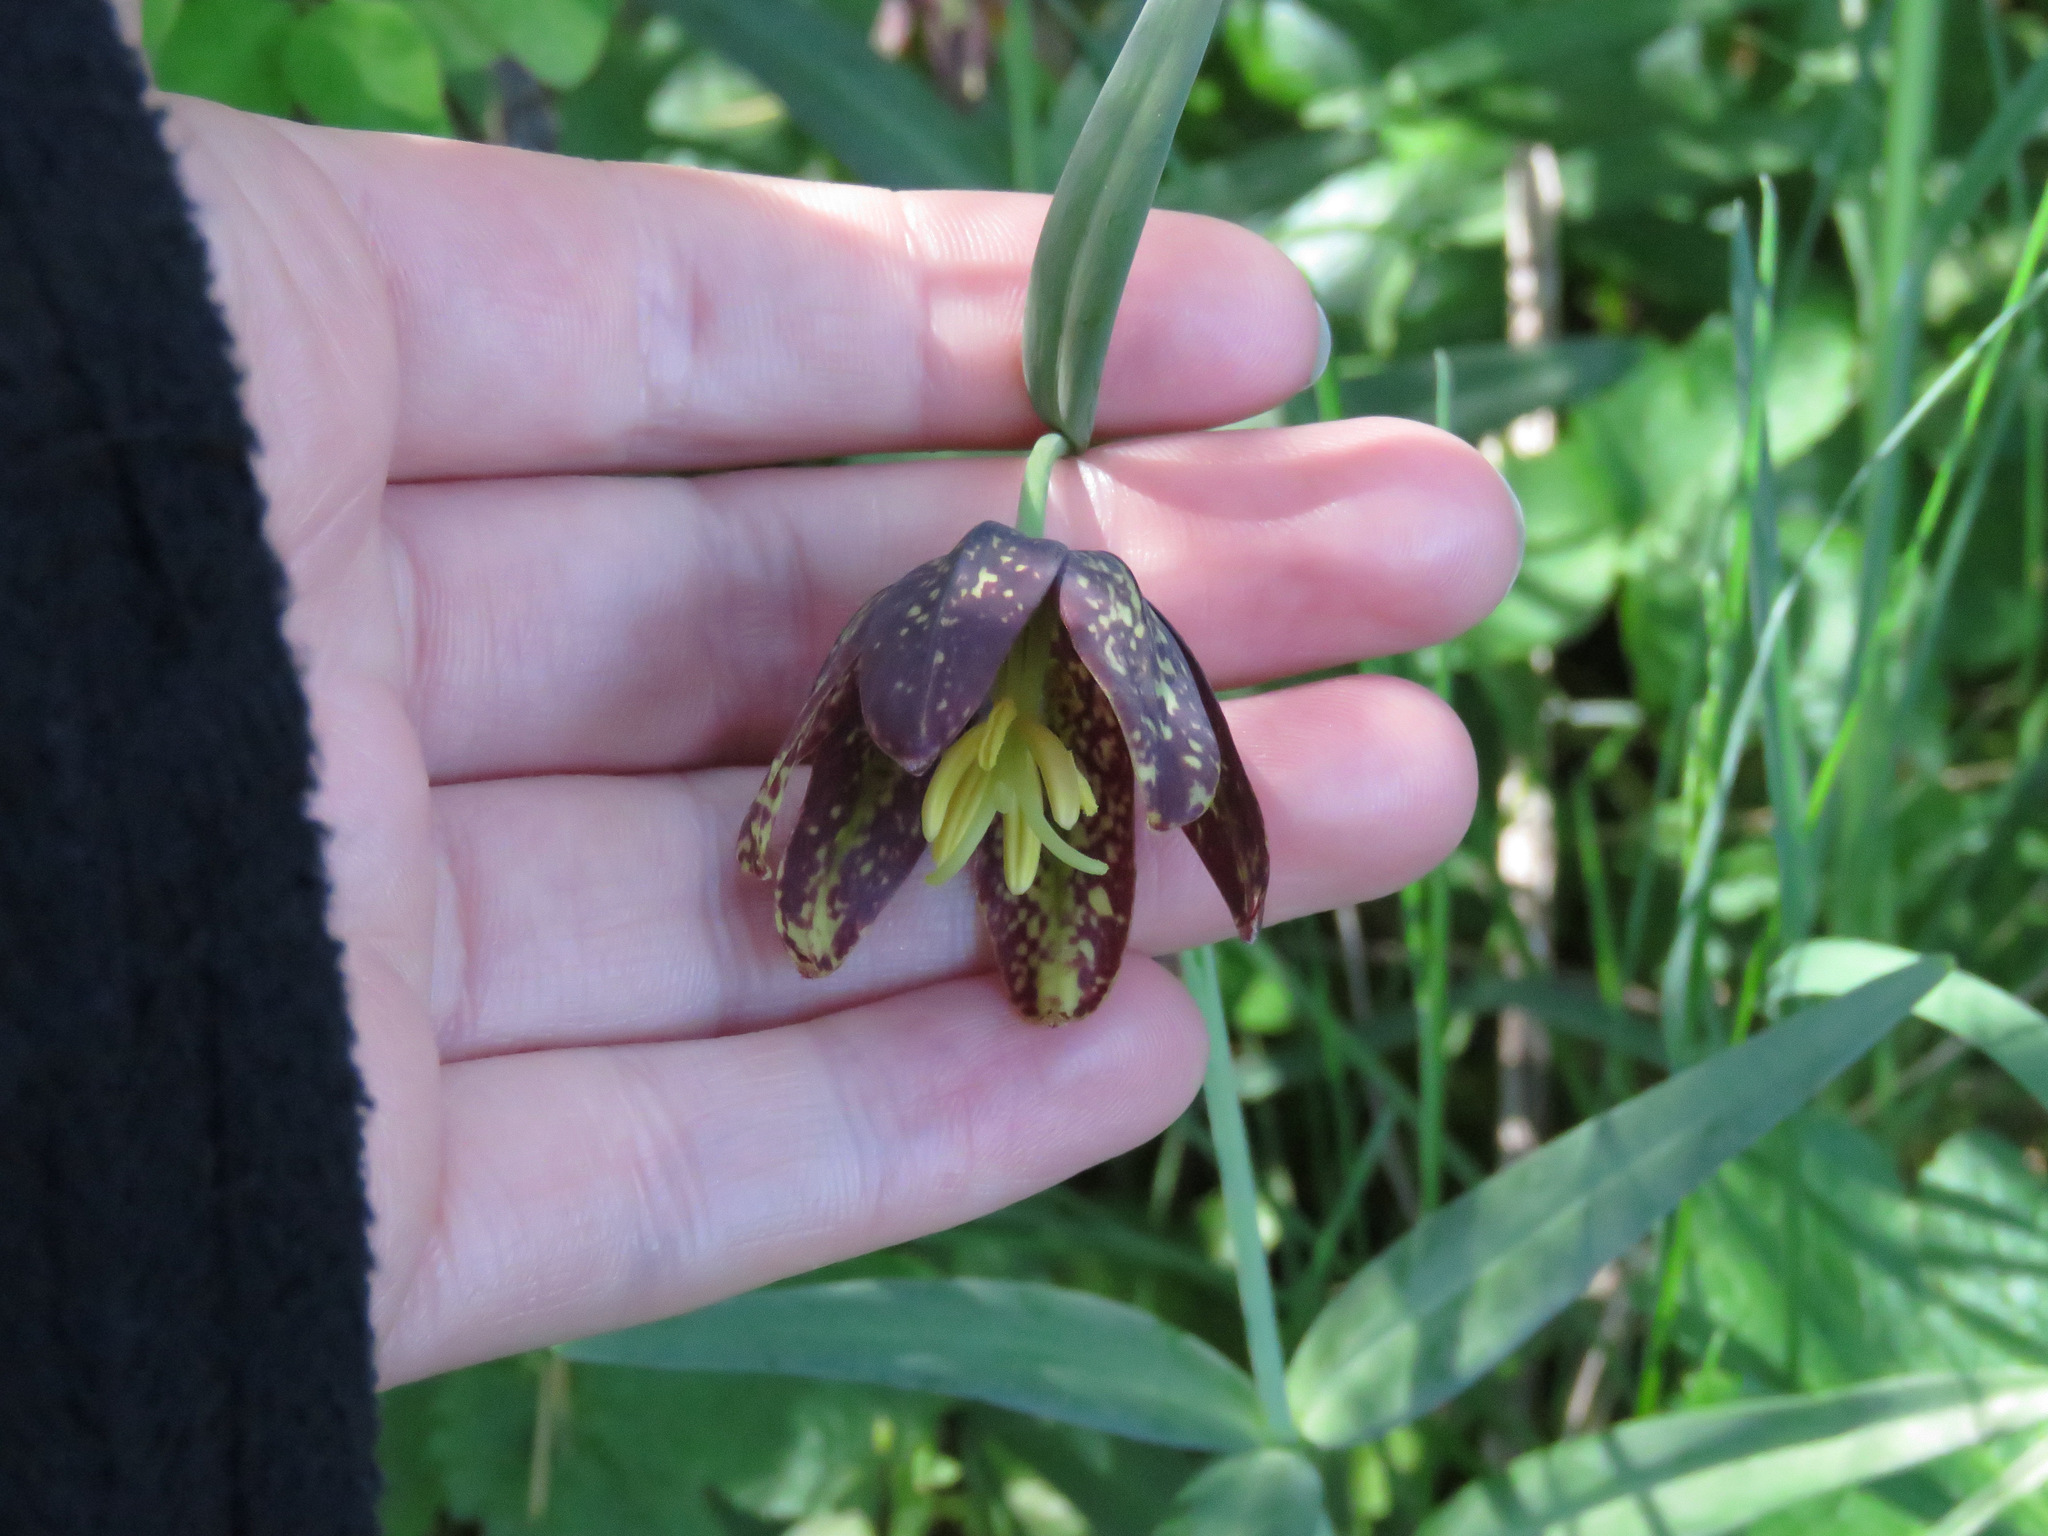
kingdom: Plantae
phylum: Tracheophyta
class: Liliopsida
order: Liliales
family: Liliaceae
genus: Fritillaria
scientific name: Fritillaria affinis
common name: Ojai fritillary
